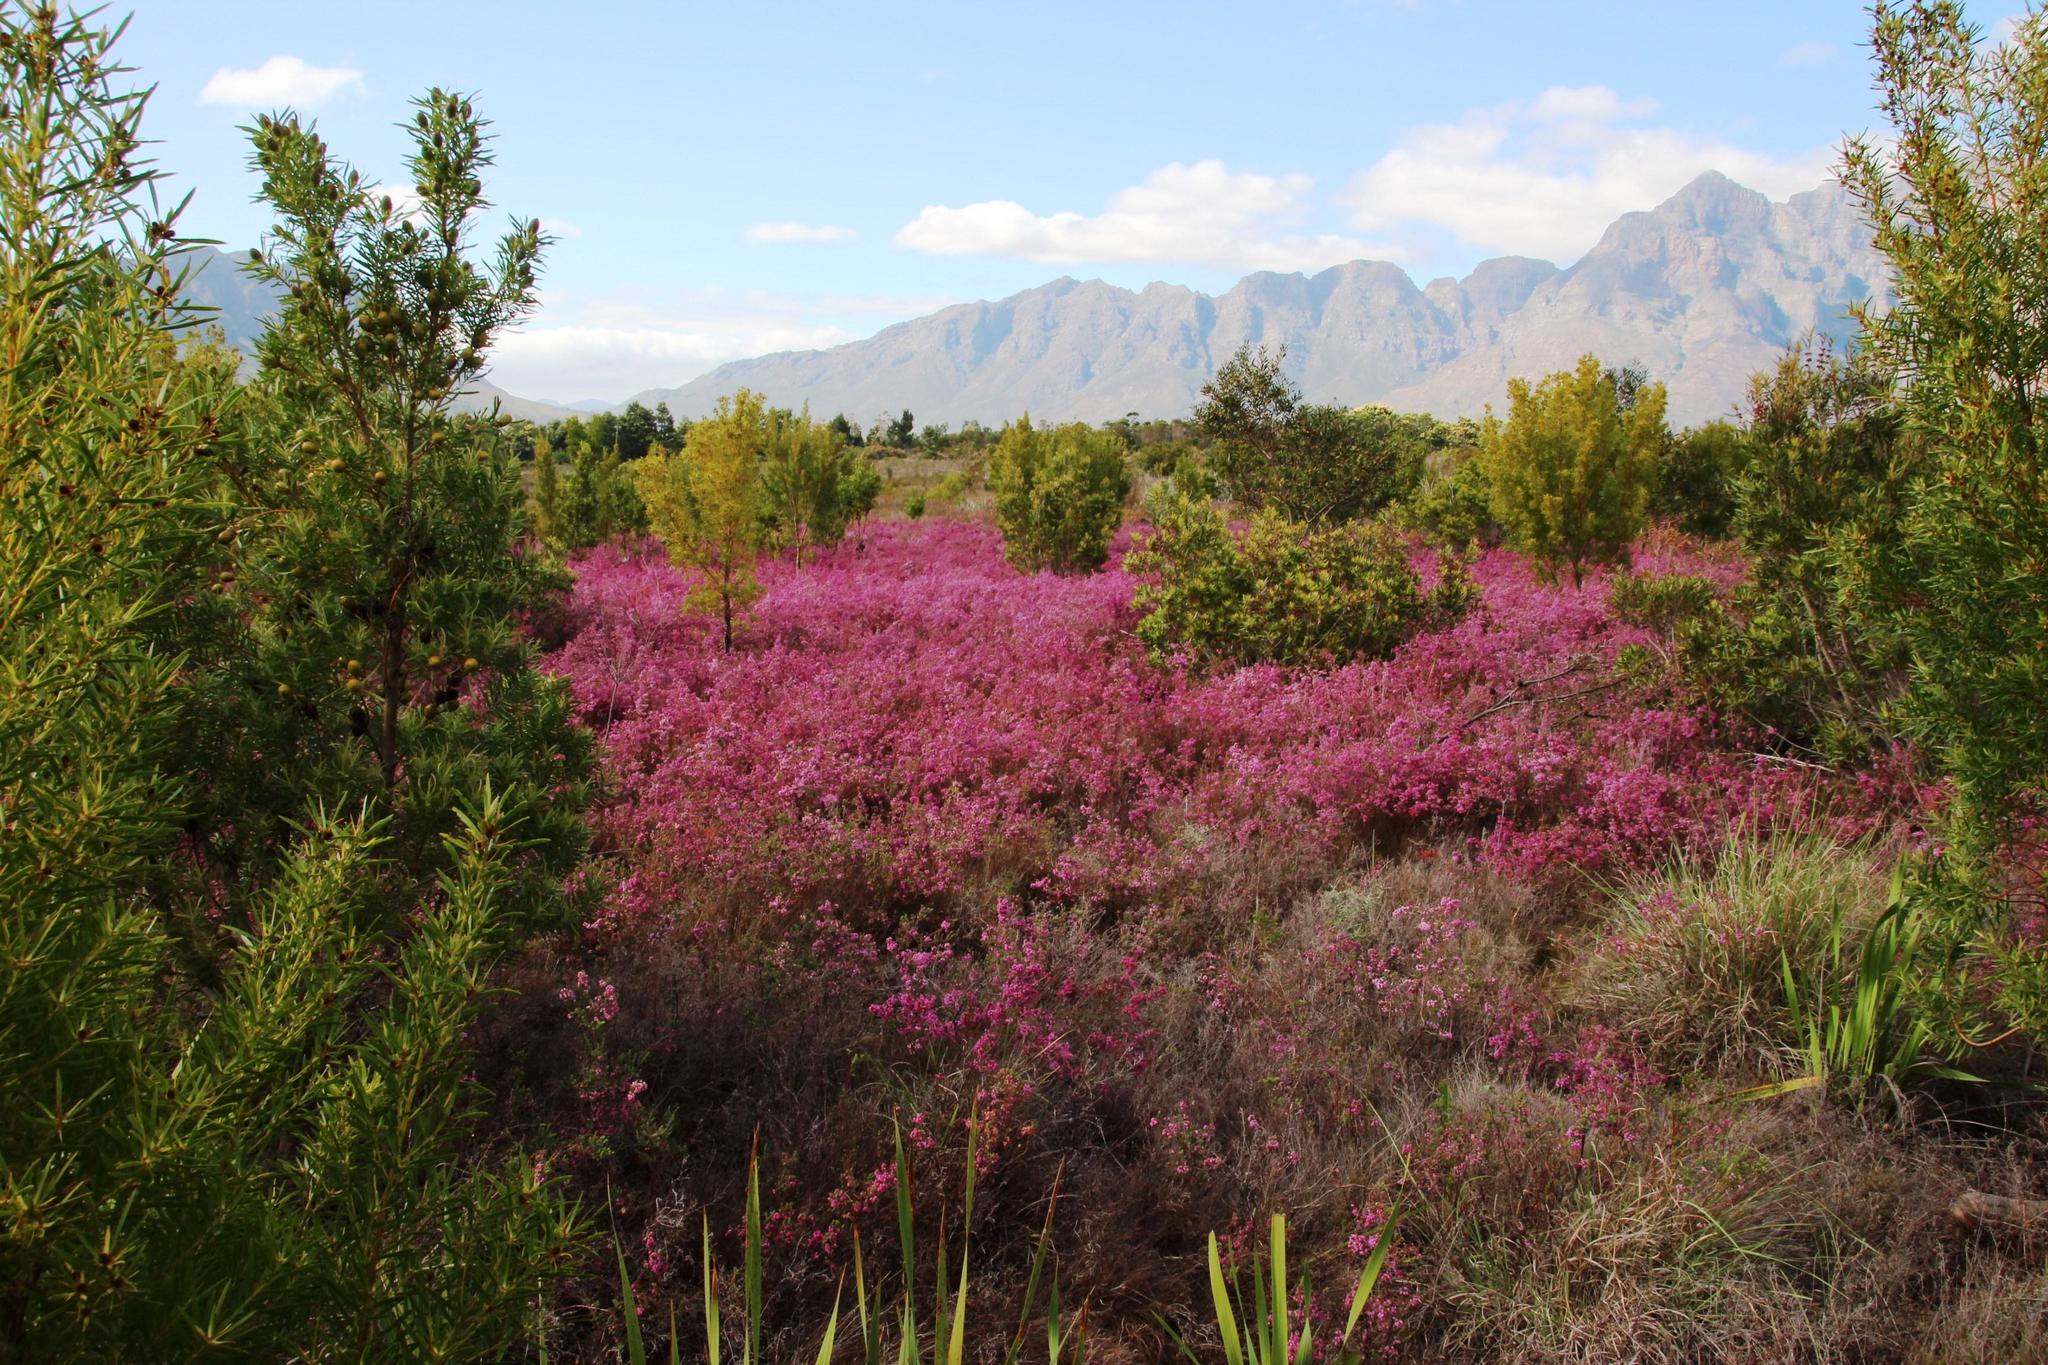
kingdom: Plantae
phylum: Tracheophyta
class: Magnoliopsida
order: Ericales
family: Ericaceae
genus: Erica
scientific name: Erica multumbellifera
